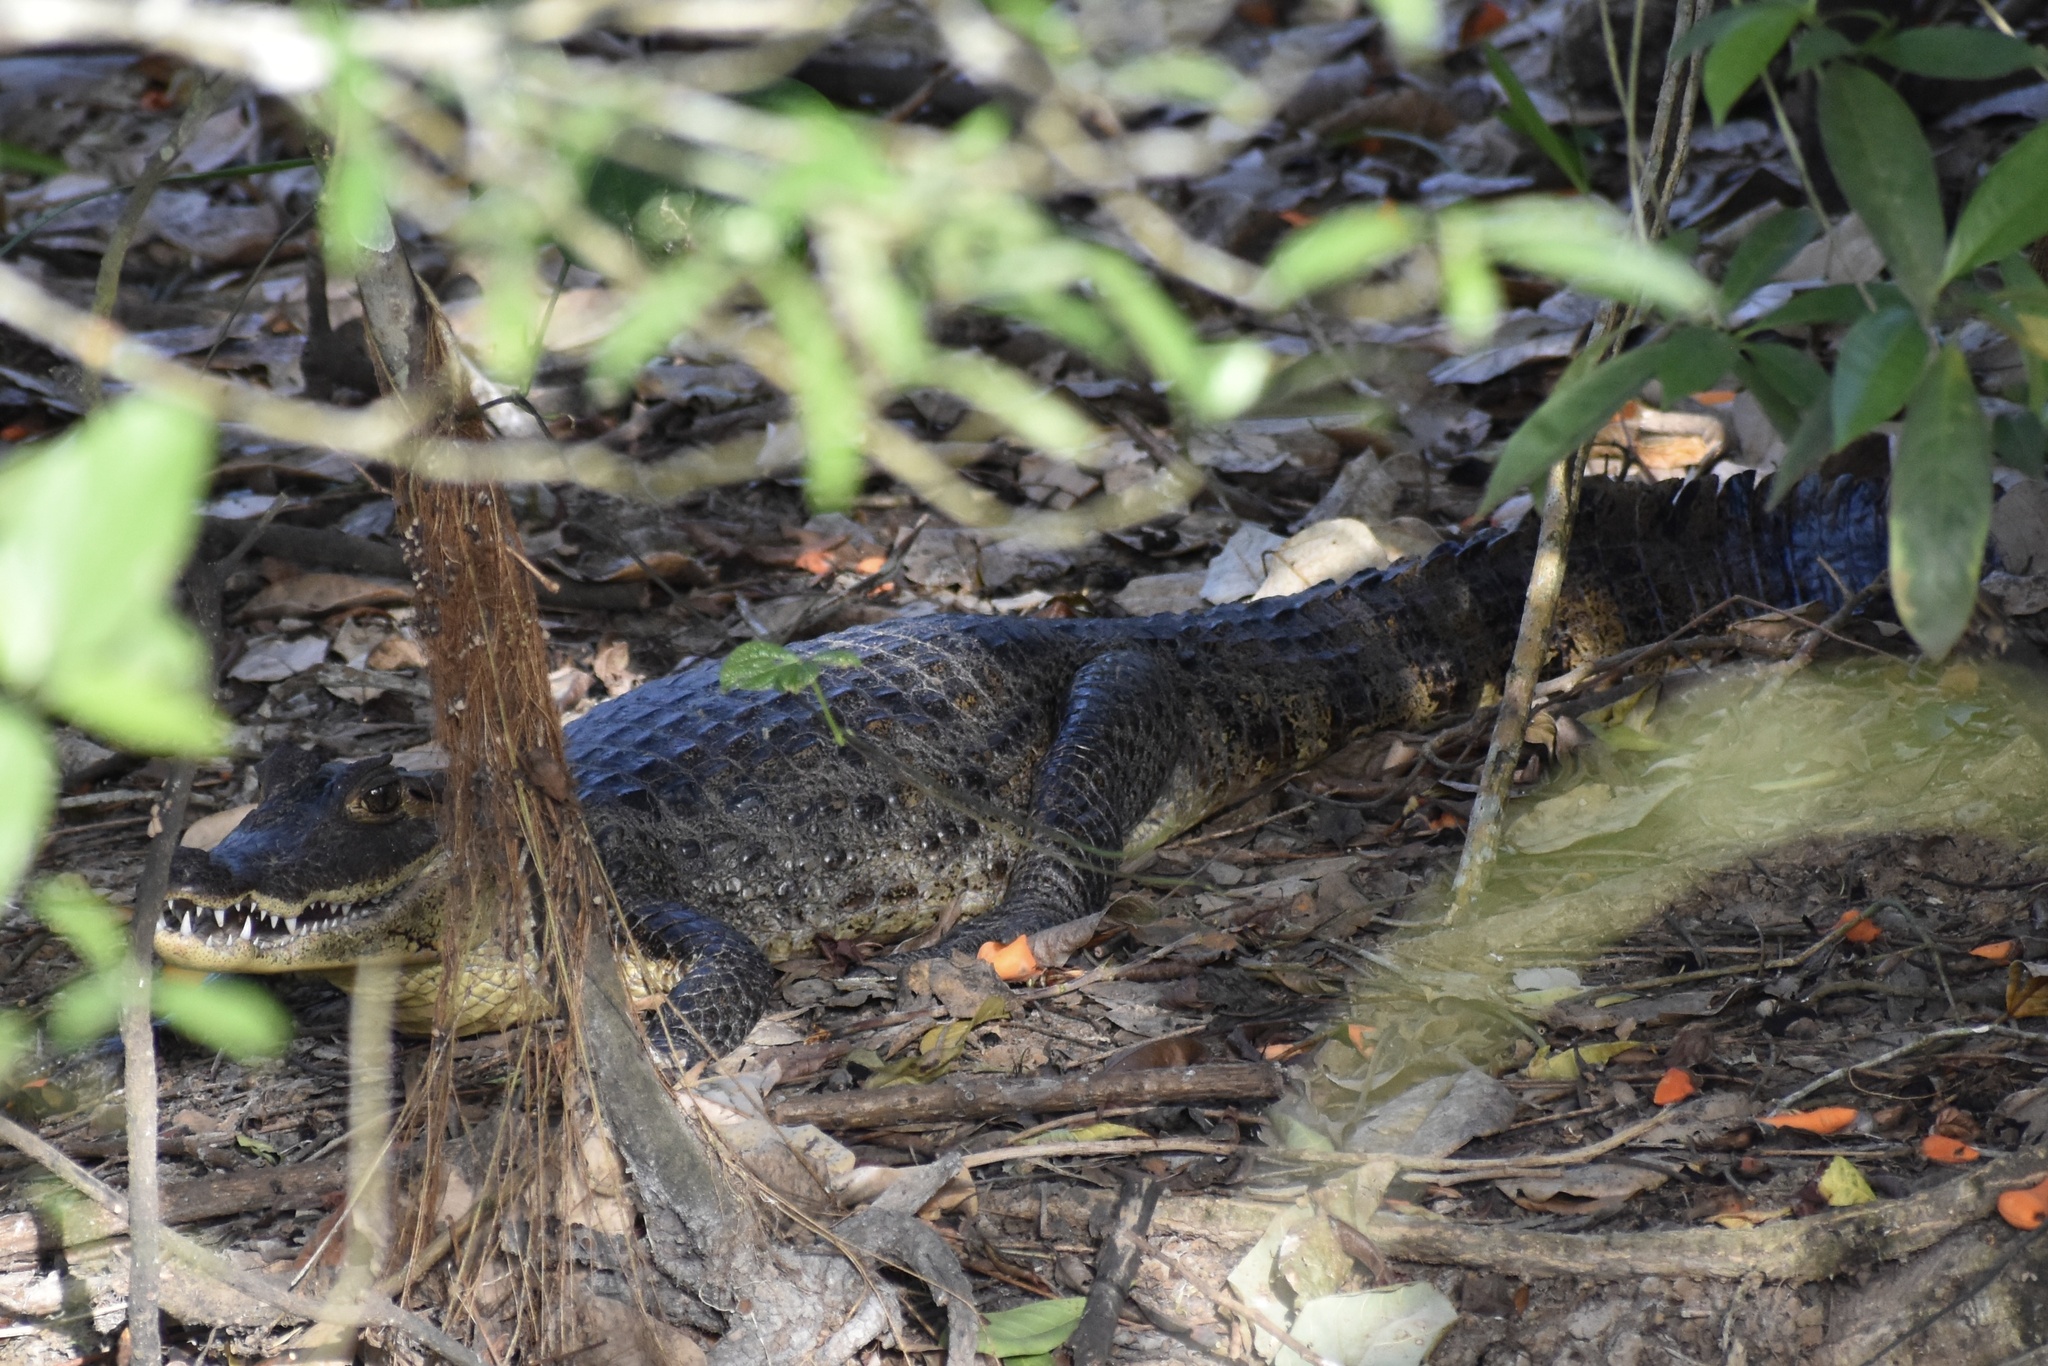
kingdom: Animalia
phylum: Chordata
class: Crocodylia
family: Alligatoridae
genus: Caiman
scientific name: Caiman crocodilus
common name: Common caiman
